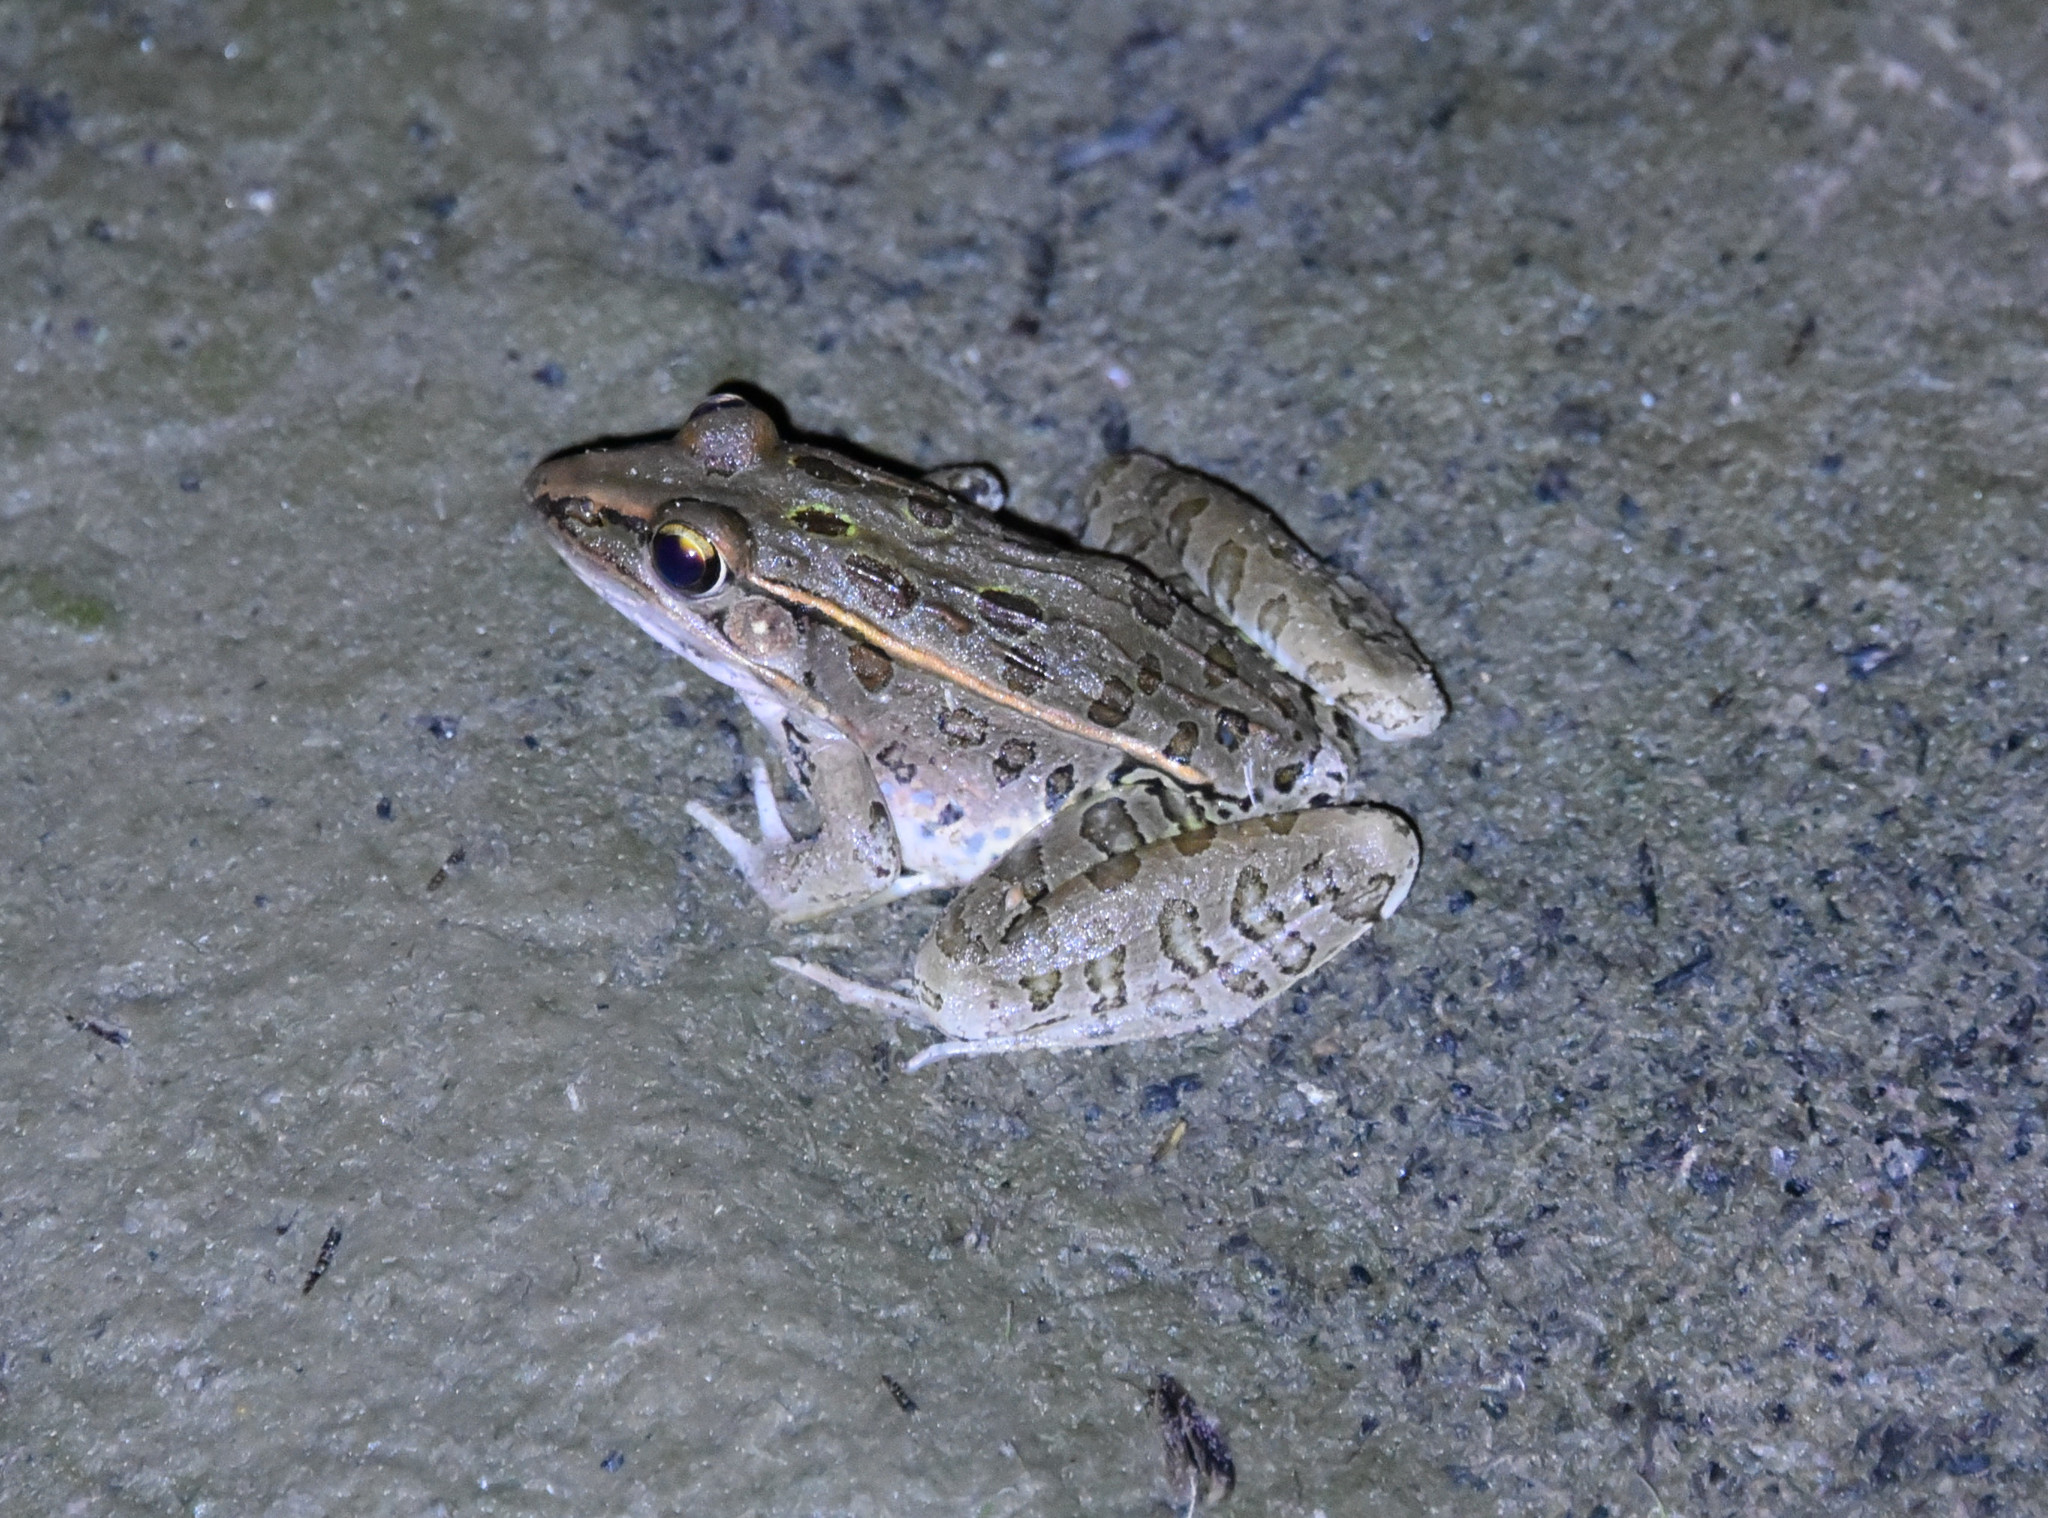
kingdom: Animalia
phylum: Chordata
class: Amphibia
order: Anura
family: Ranidae
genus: Lithobates
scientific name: Lithobates sphenocephalus
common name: Southern leopard frog
